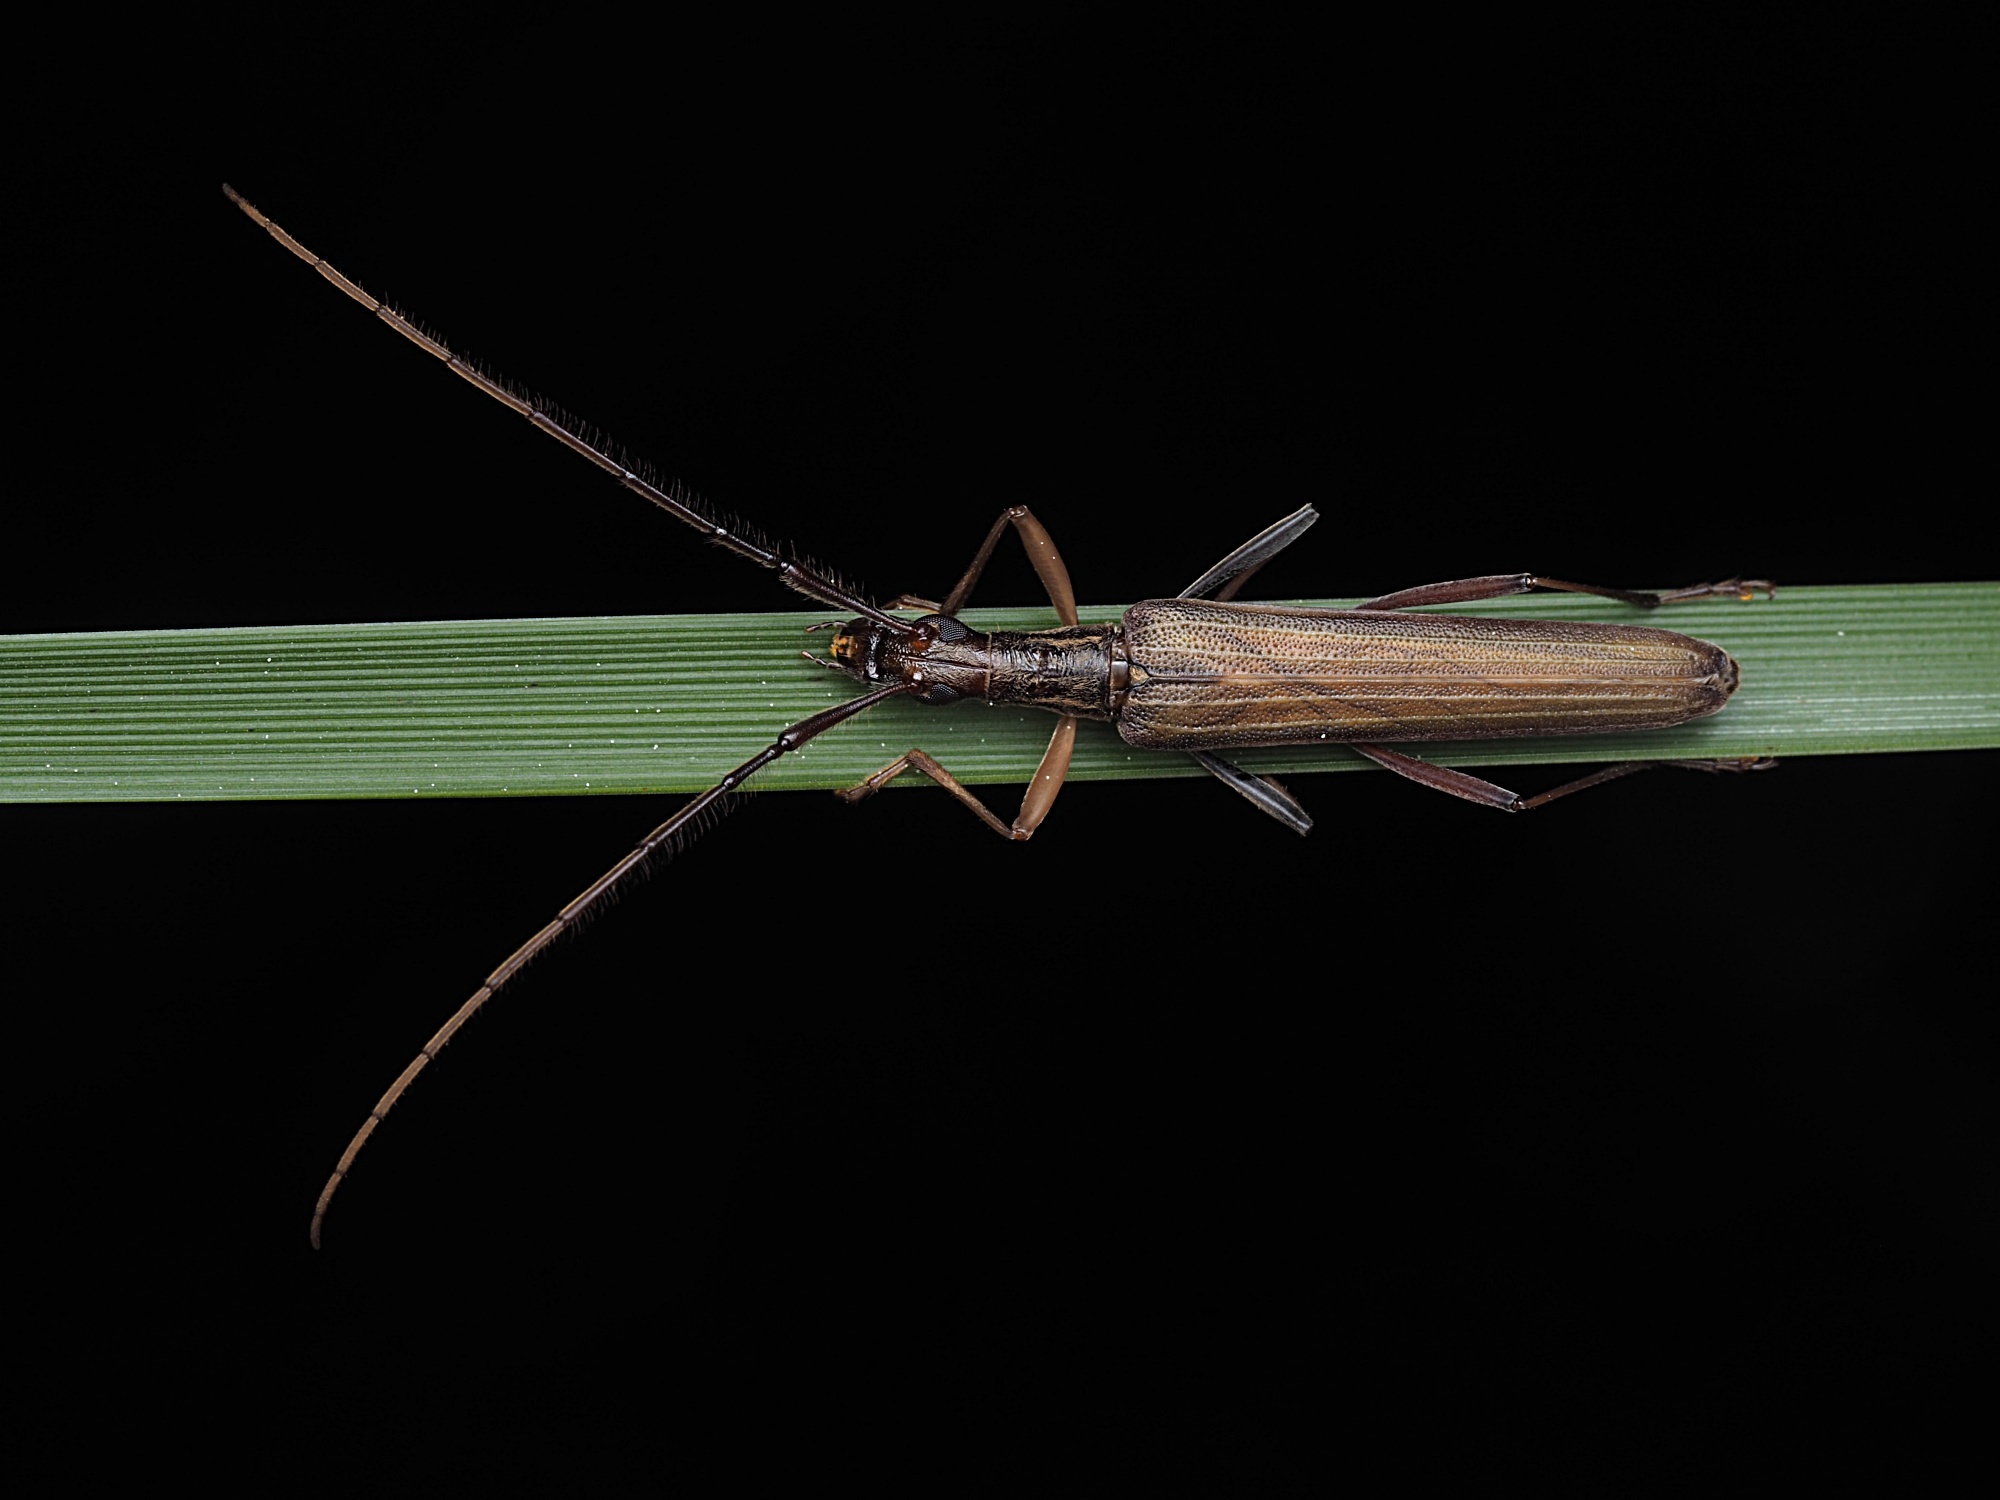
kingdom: Animalia
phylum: Arthropoda
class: Insecta
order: Coleoptera
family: Cerambycidae
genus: Stenopotes
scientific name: Stenopotes pallidus
